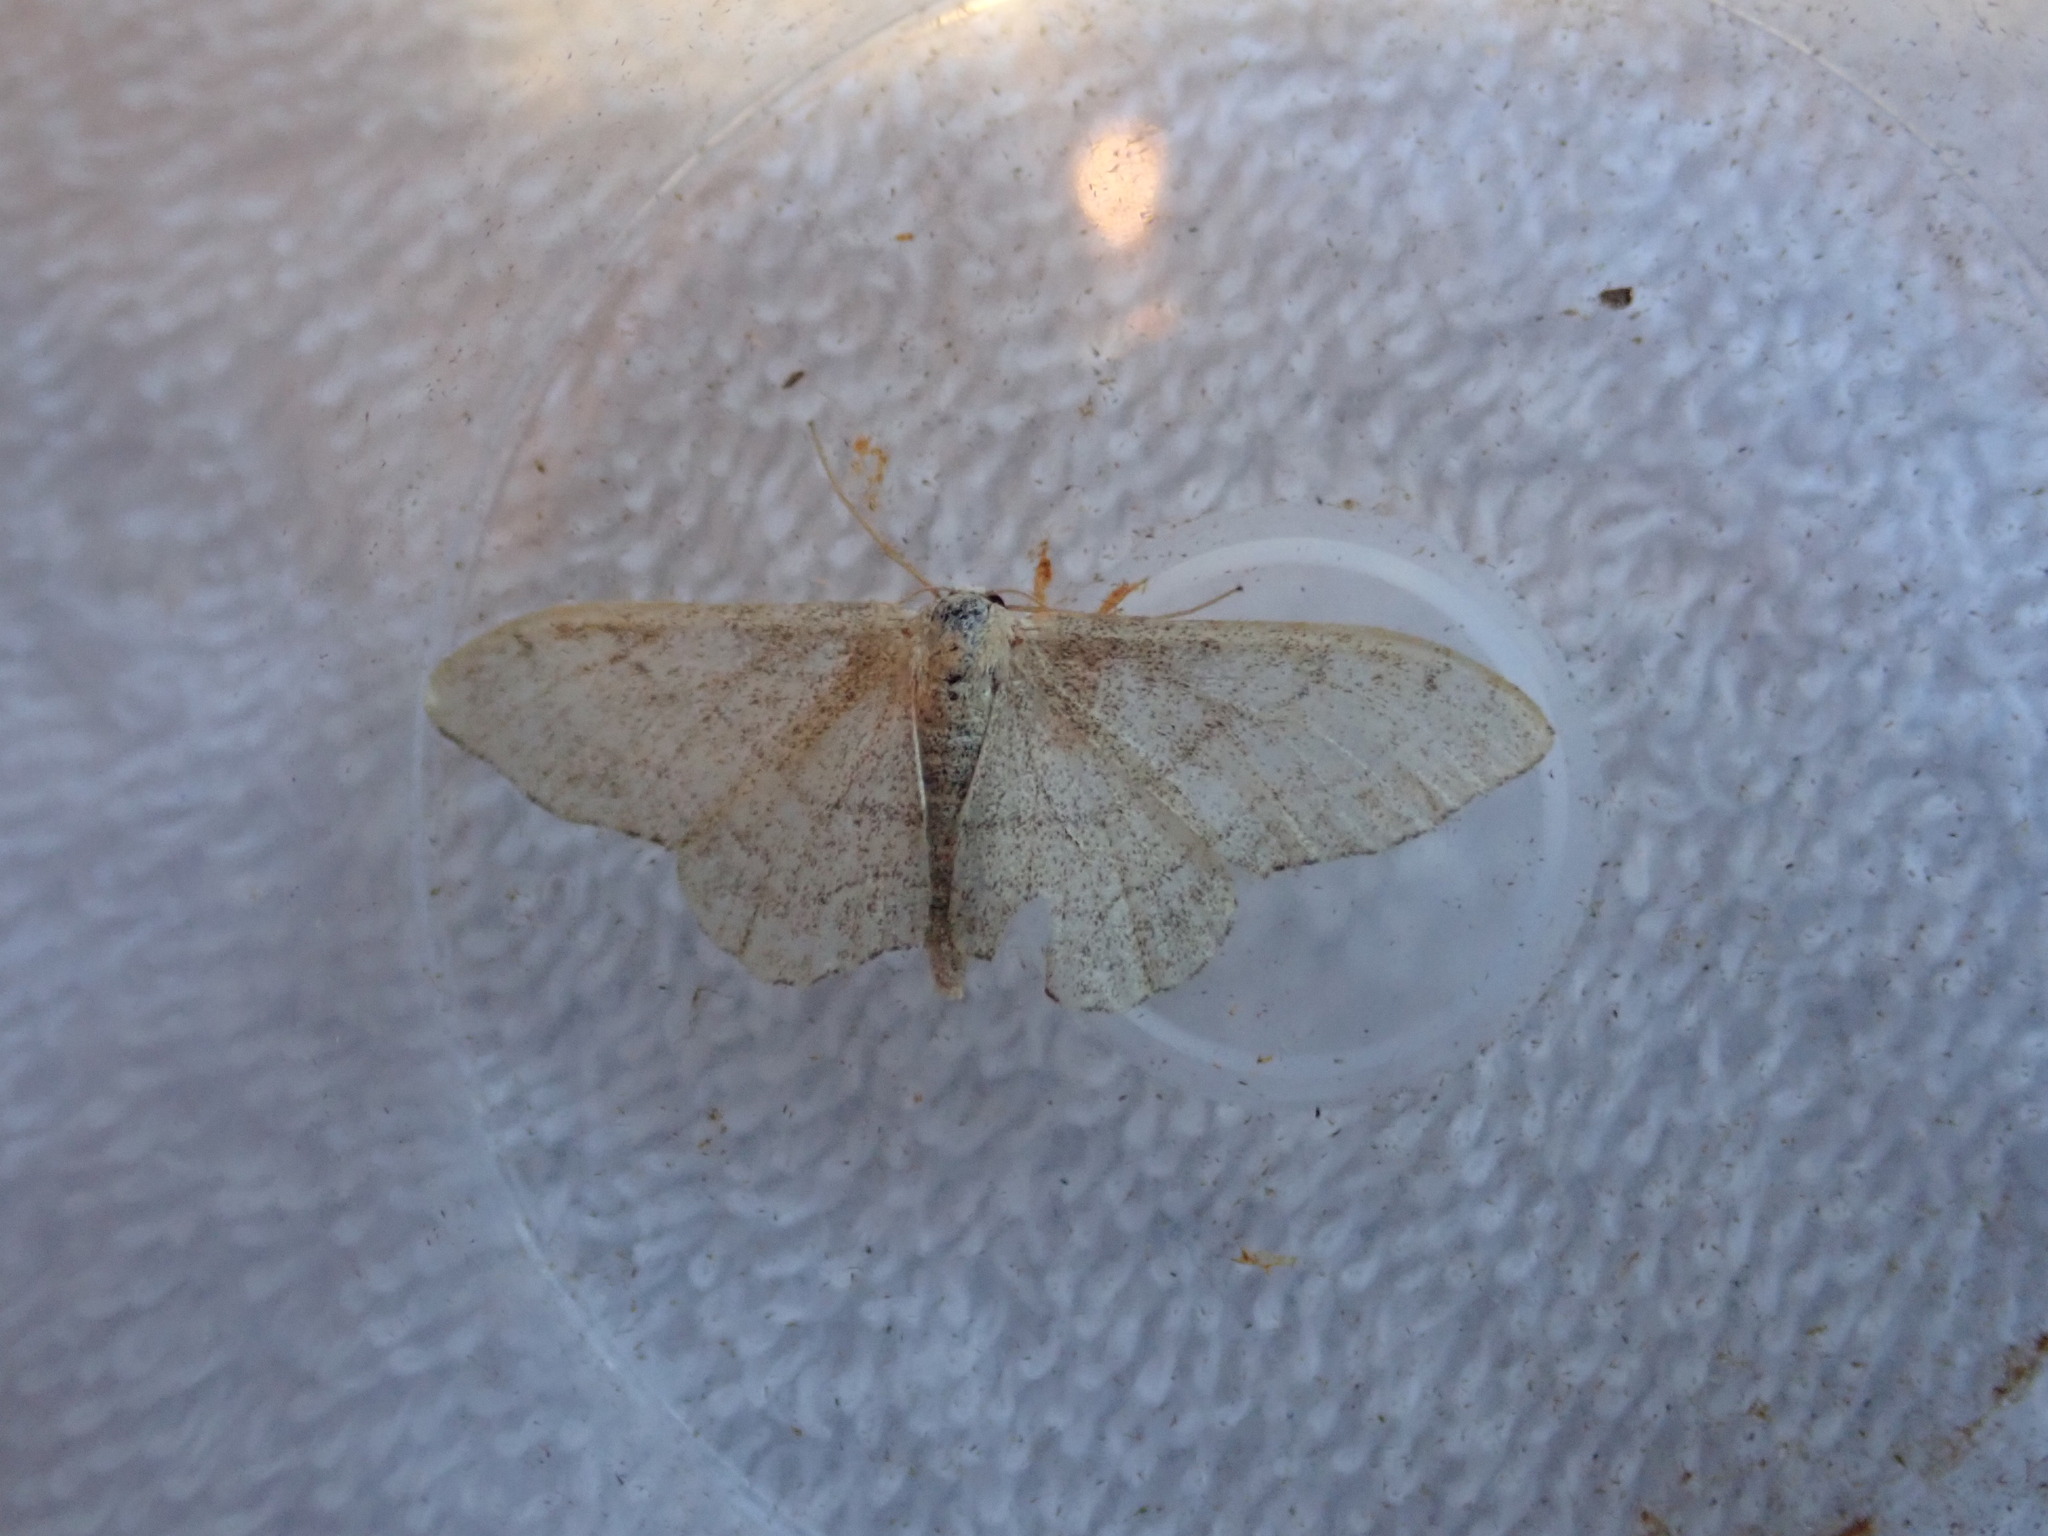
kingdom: Animalia
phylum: Arthropoda
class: Insecta
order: Lepidoptera
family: Geometridae
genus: Idaea
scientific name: Idaea aversata
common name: Riband wave
